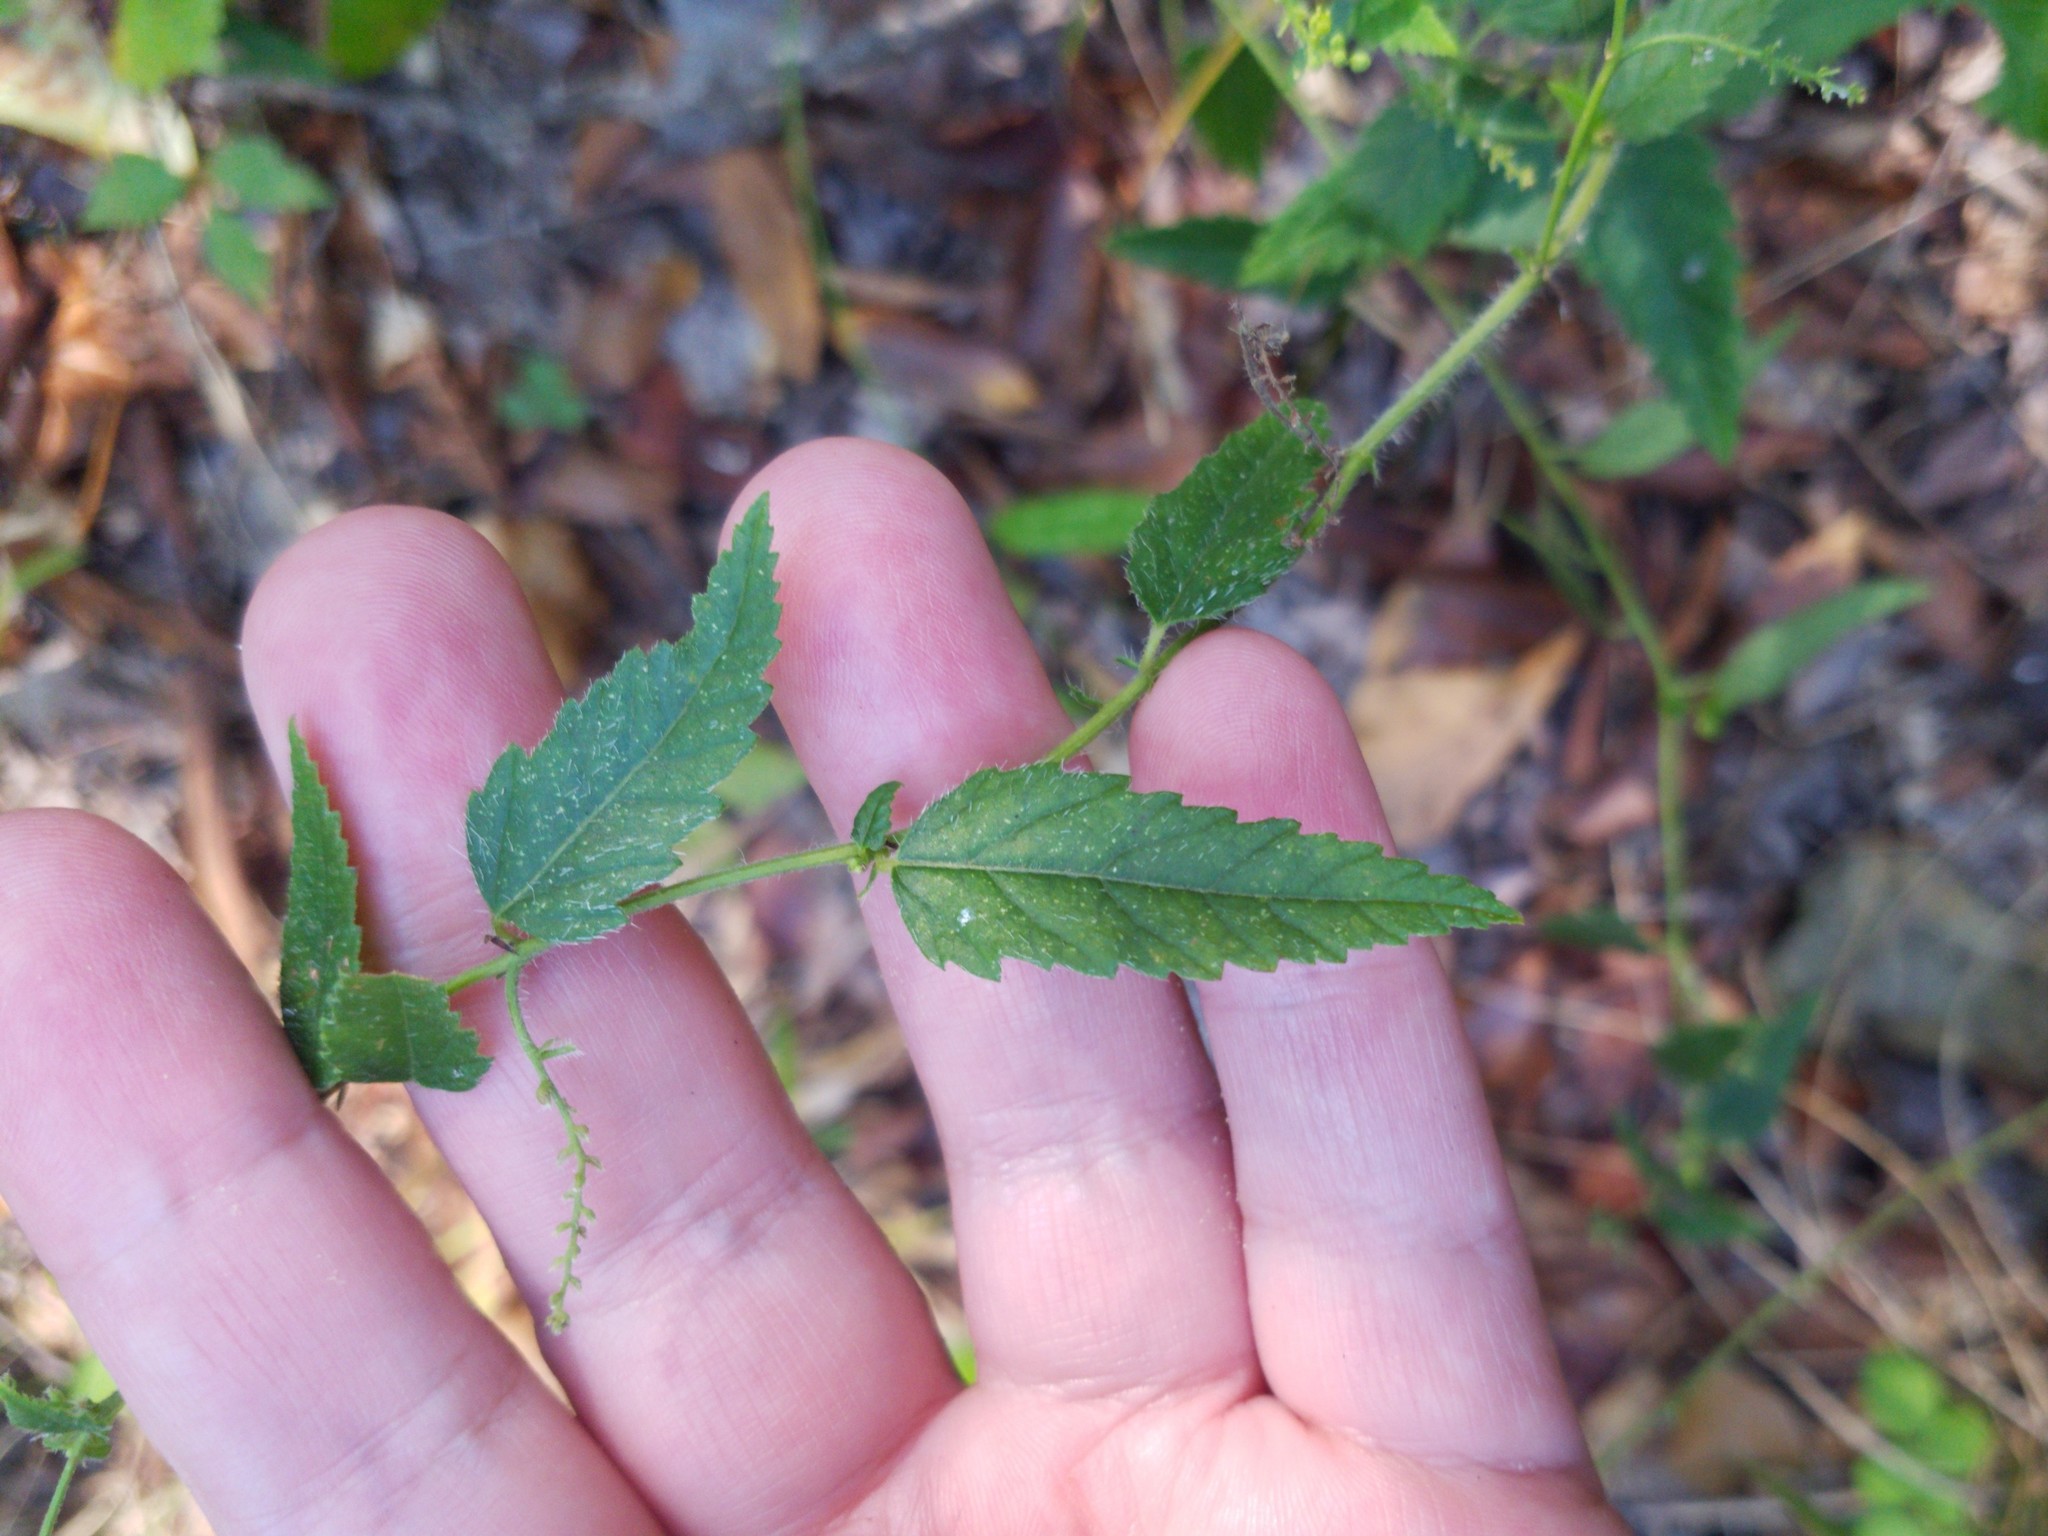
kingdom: Plantae
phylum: Tracheophyta
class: Magnoliopsida
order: Malpighiales
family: Euphorbiaceae
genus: Tragia
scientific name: Tragia urticifolia
